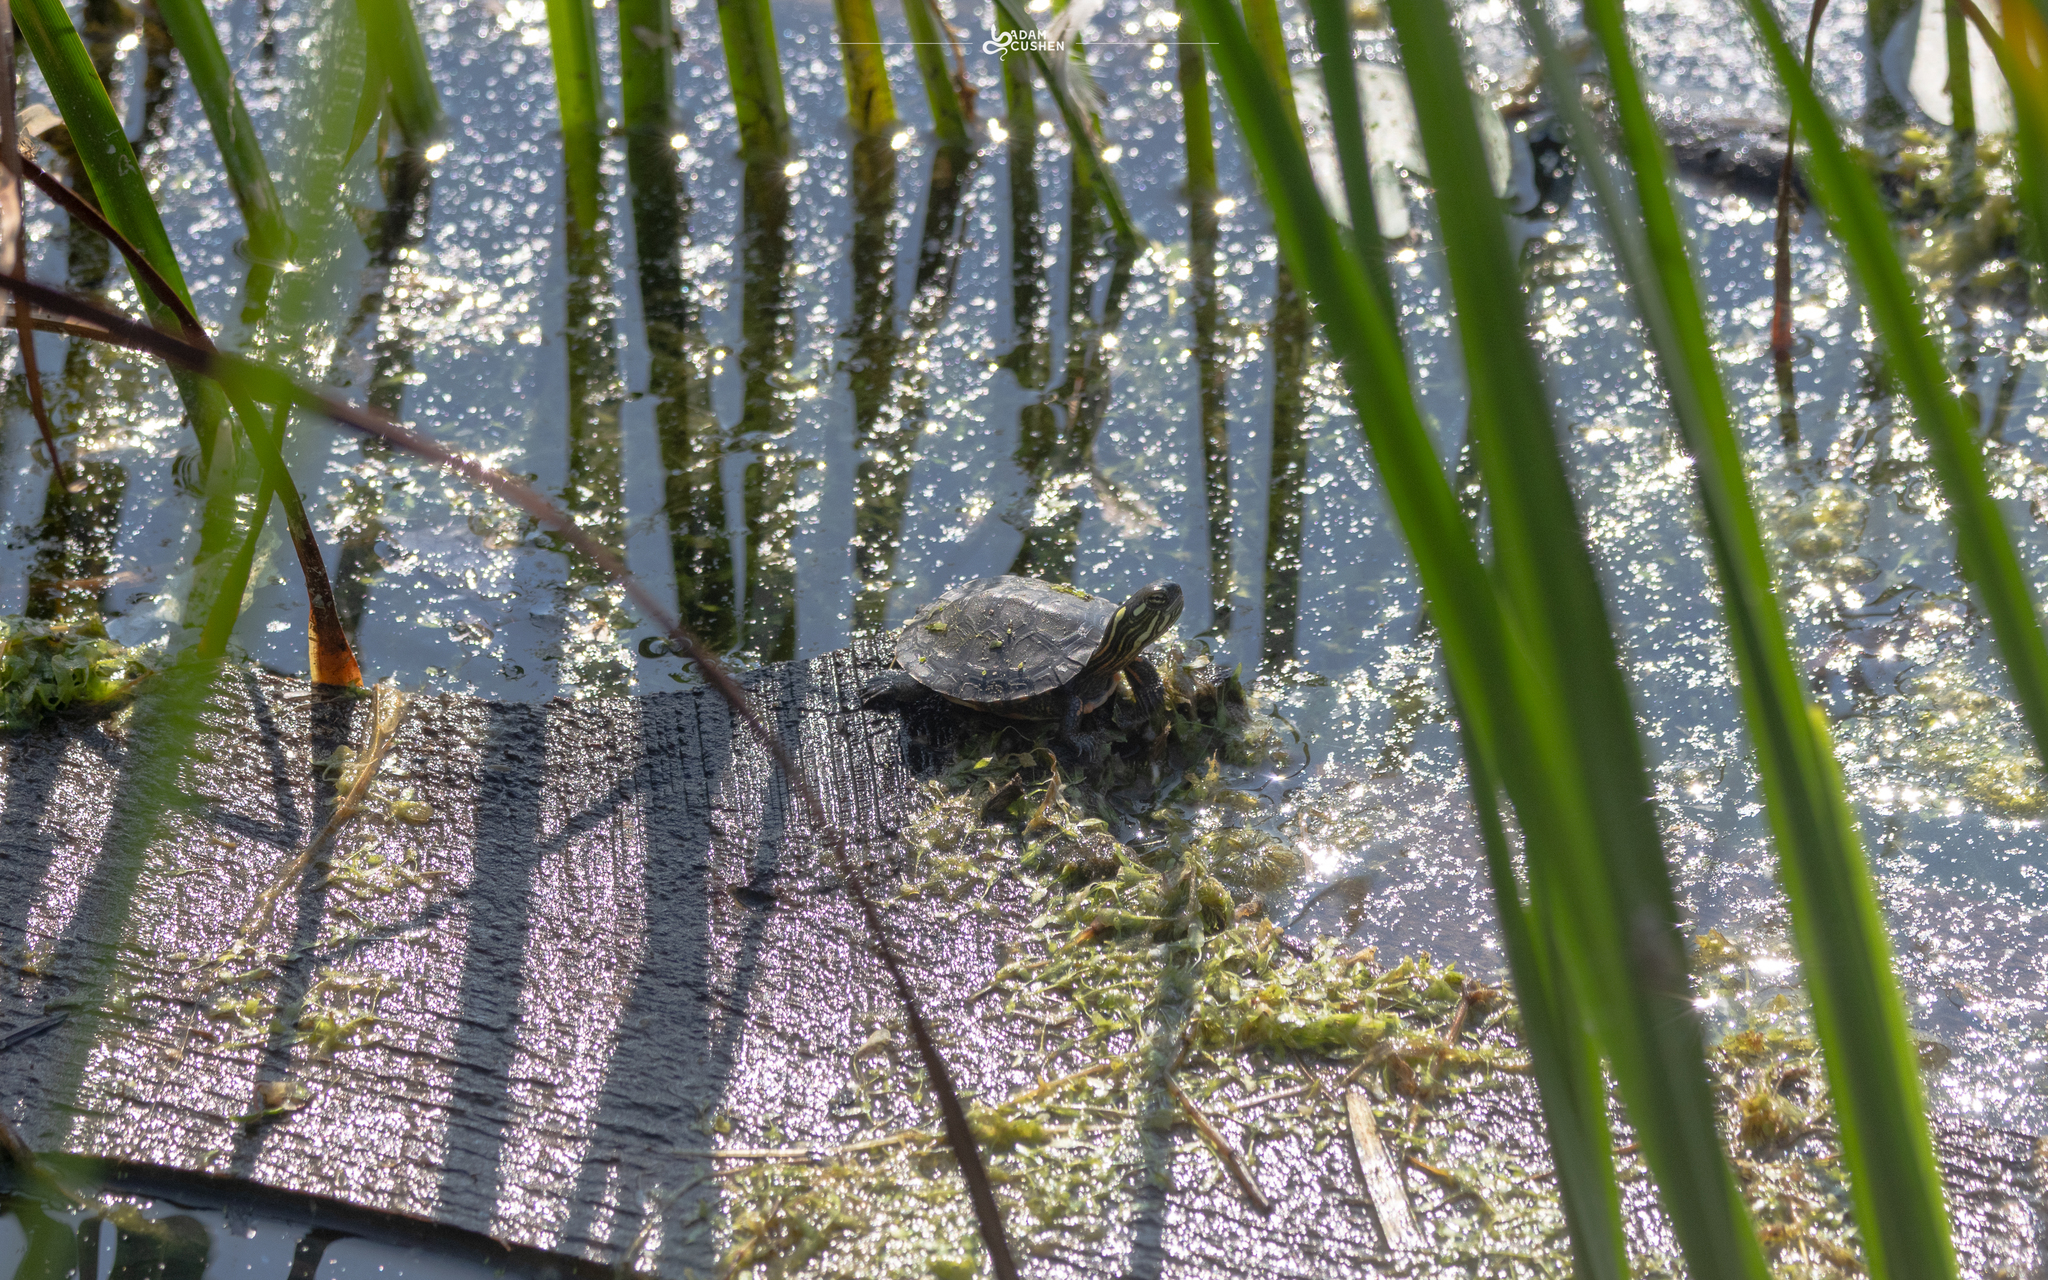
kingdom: Animalia
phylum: Chordata
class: Testudines
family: Emydidae
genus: Chrysemys
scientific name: Chrysemys picta
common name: Painted turtle
